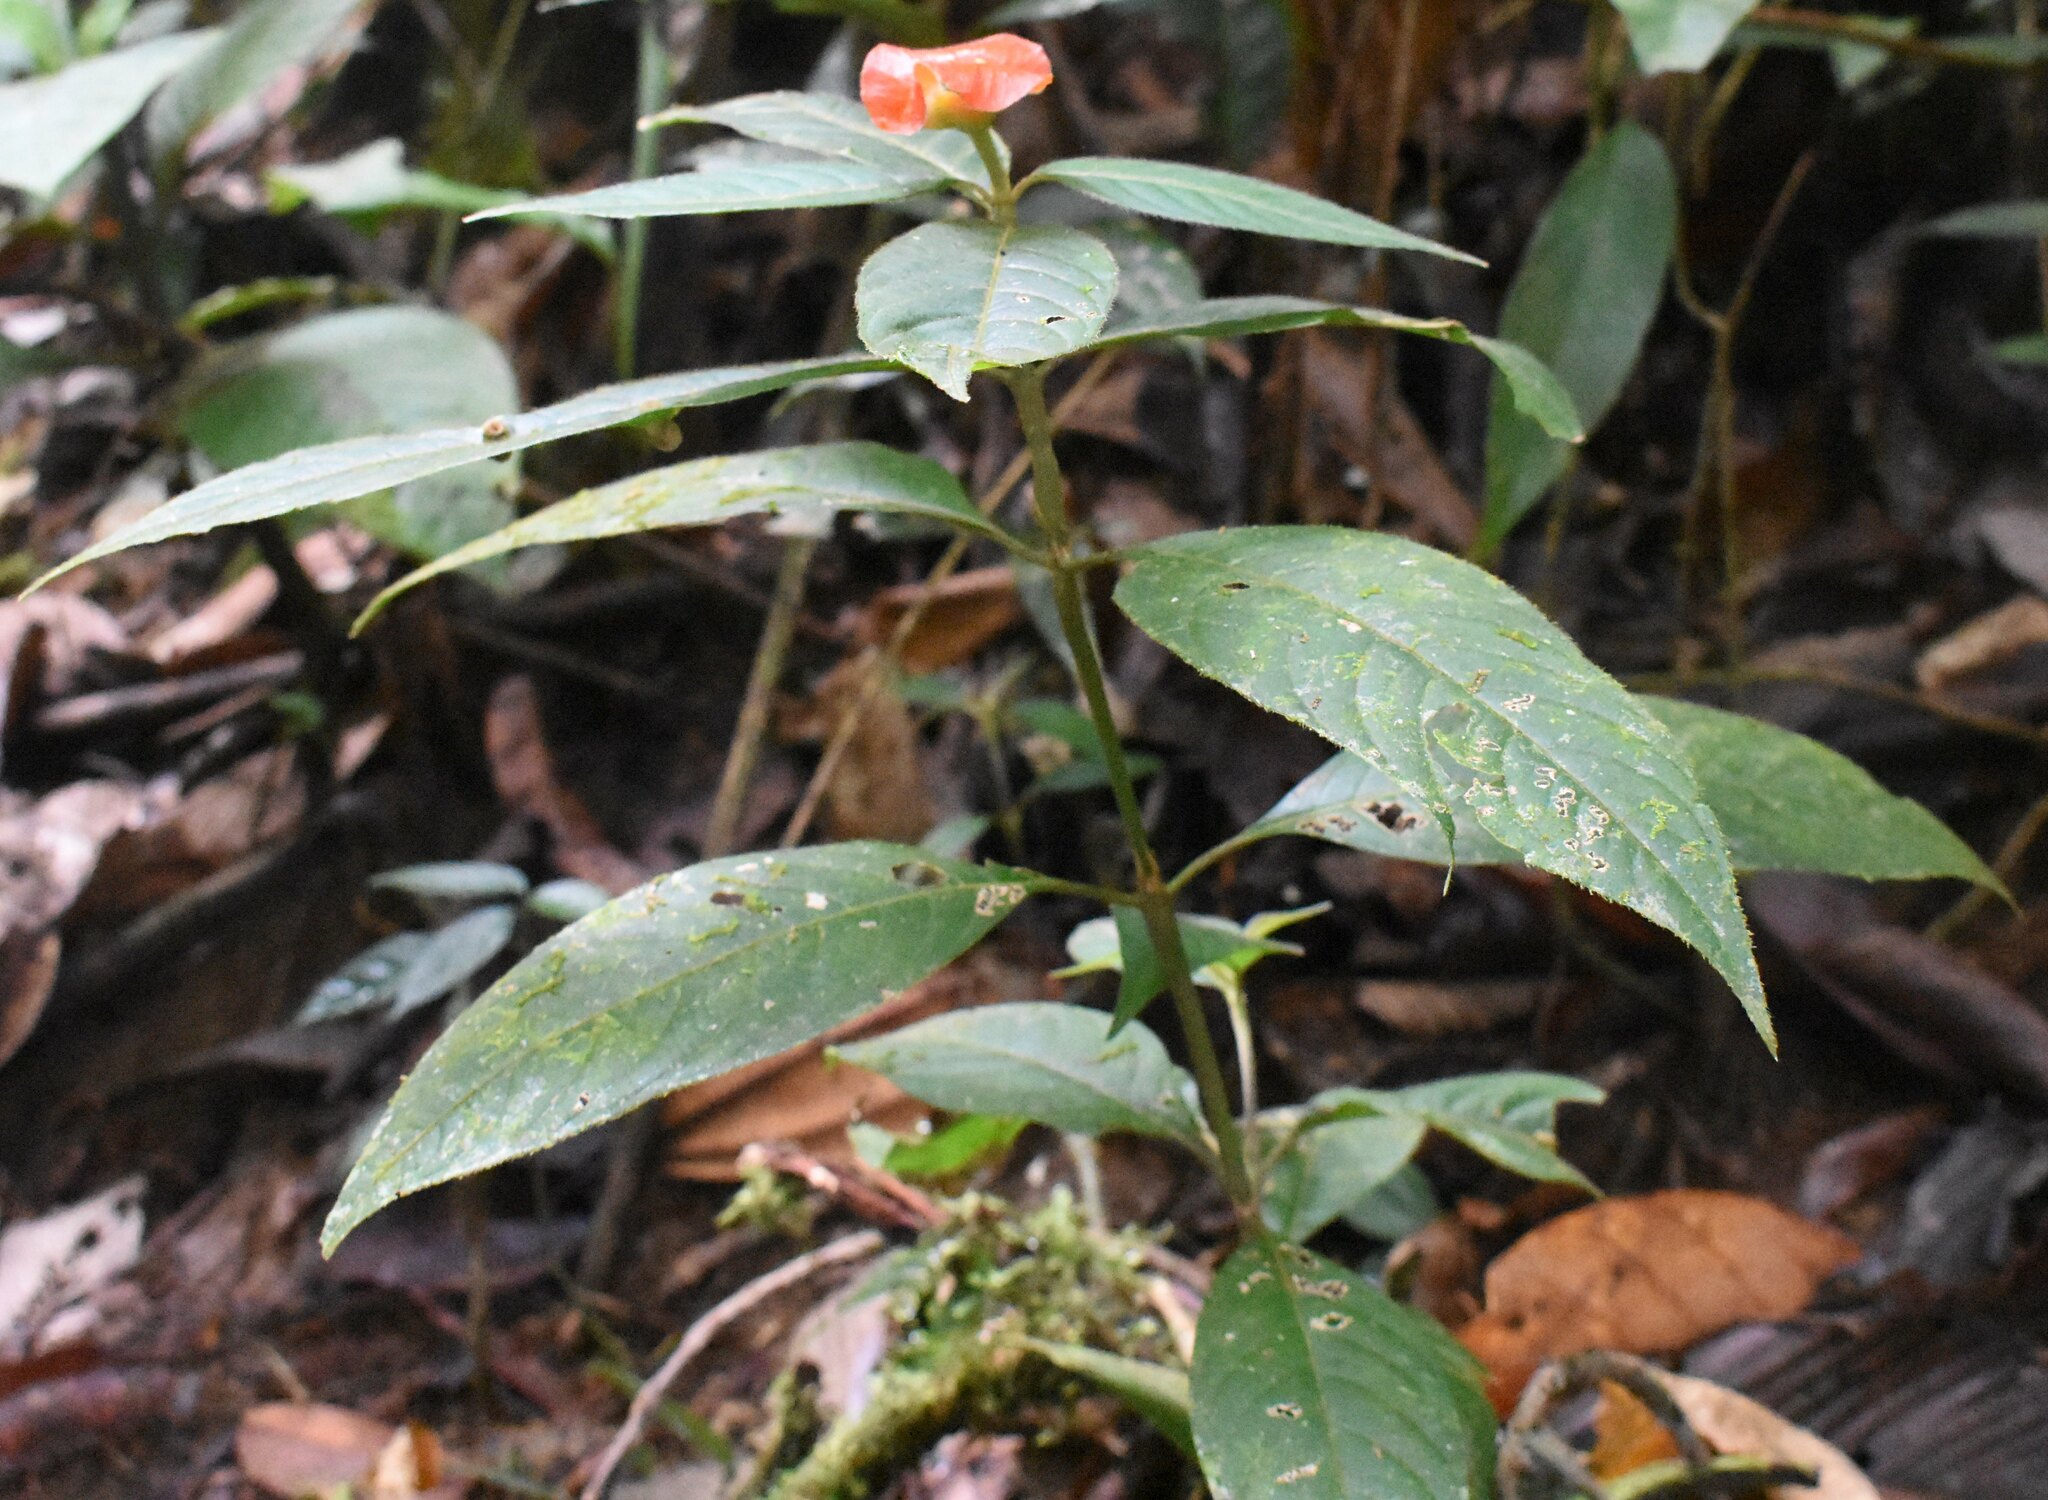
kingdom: Plantae
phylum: Tracheophyta
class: Magnoliopsida
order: Gentianales
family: Rubiaceae
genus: Palicourea
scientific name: Palicourea tomentosa
